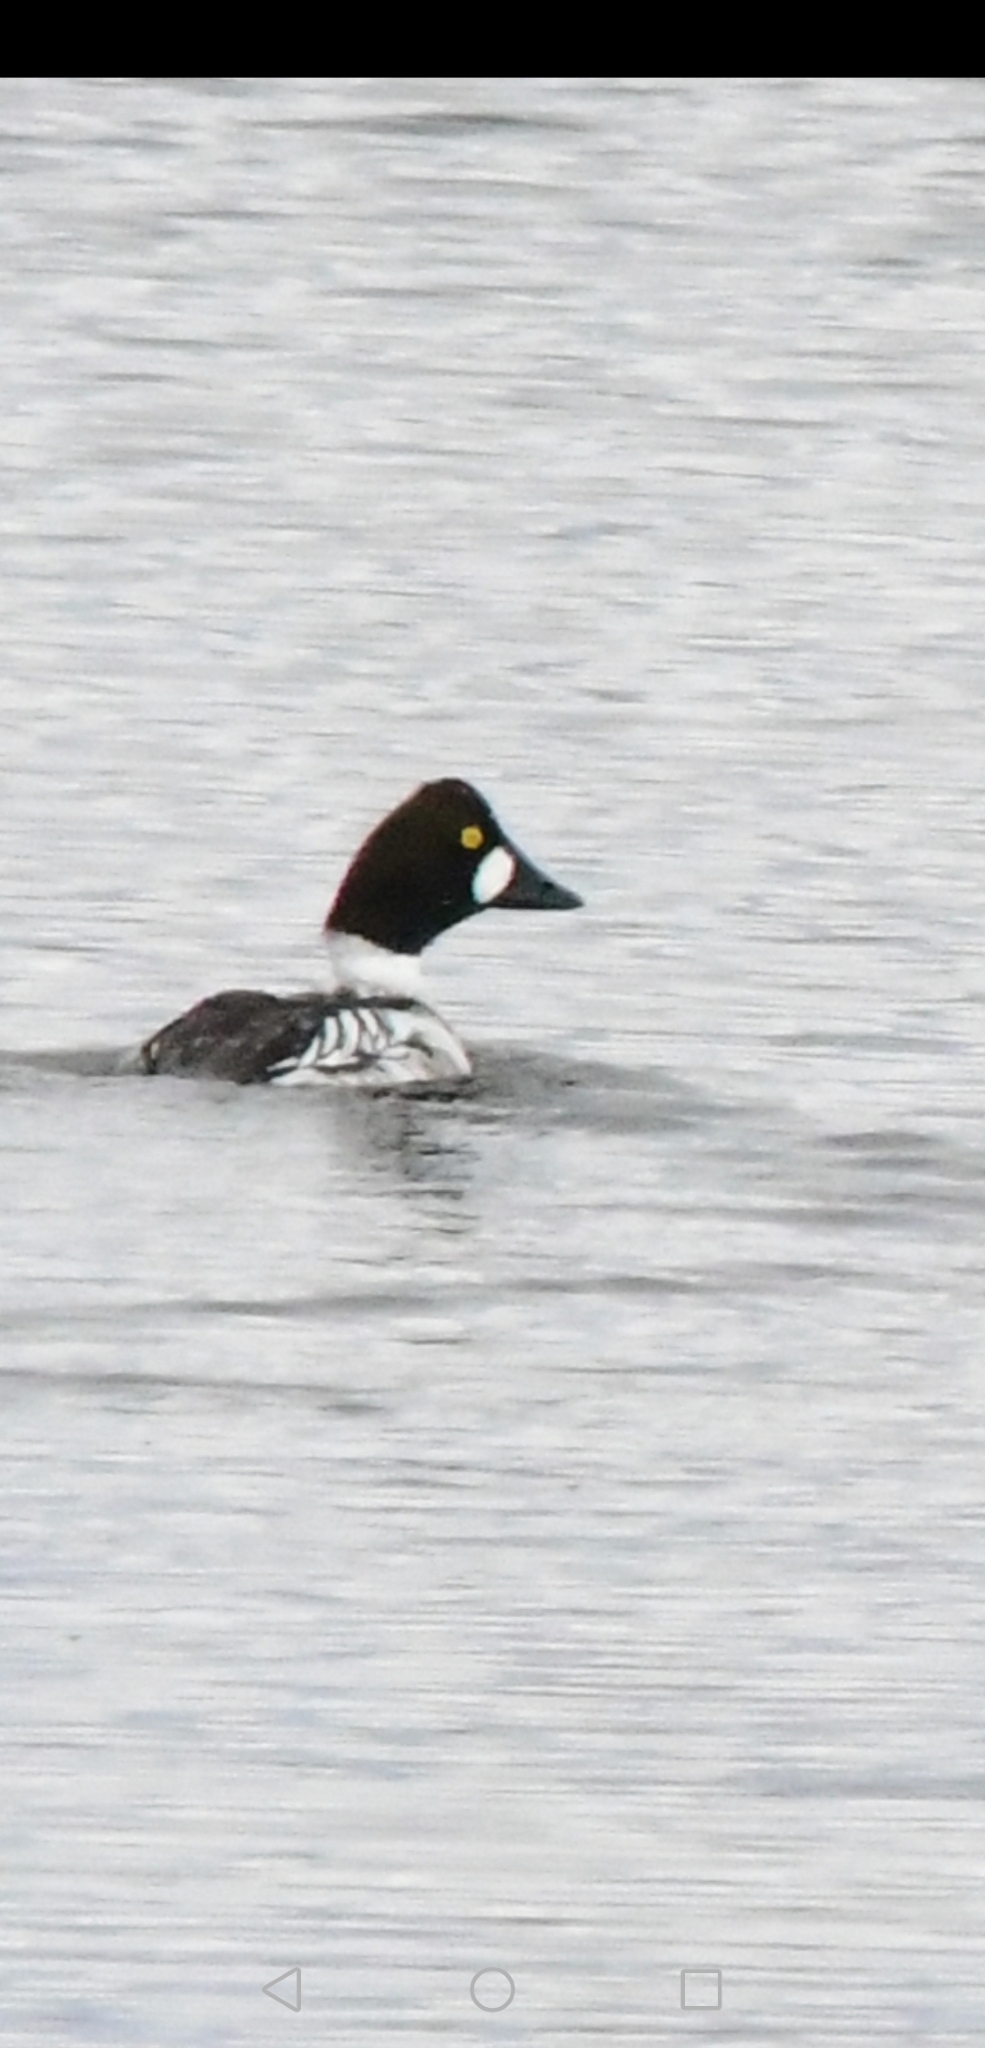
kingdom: Animalia
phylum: Chordata
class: Aves
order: Anseriformes
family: Anatidae
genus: Bucephala
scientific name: Bucephala clangula
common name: Common goldeneye
